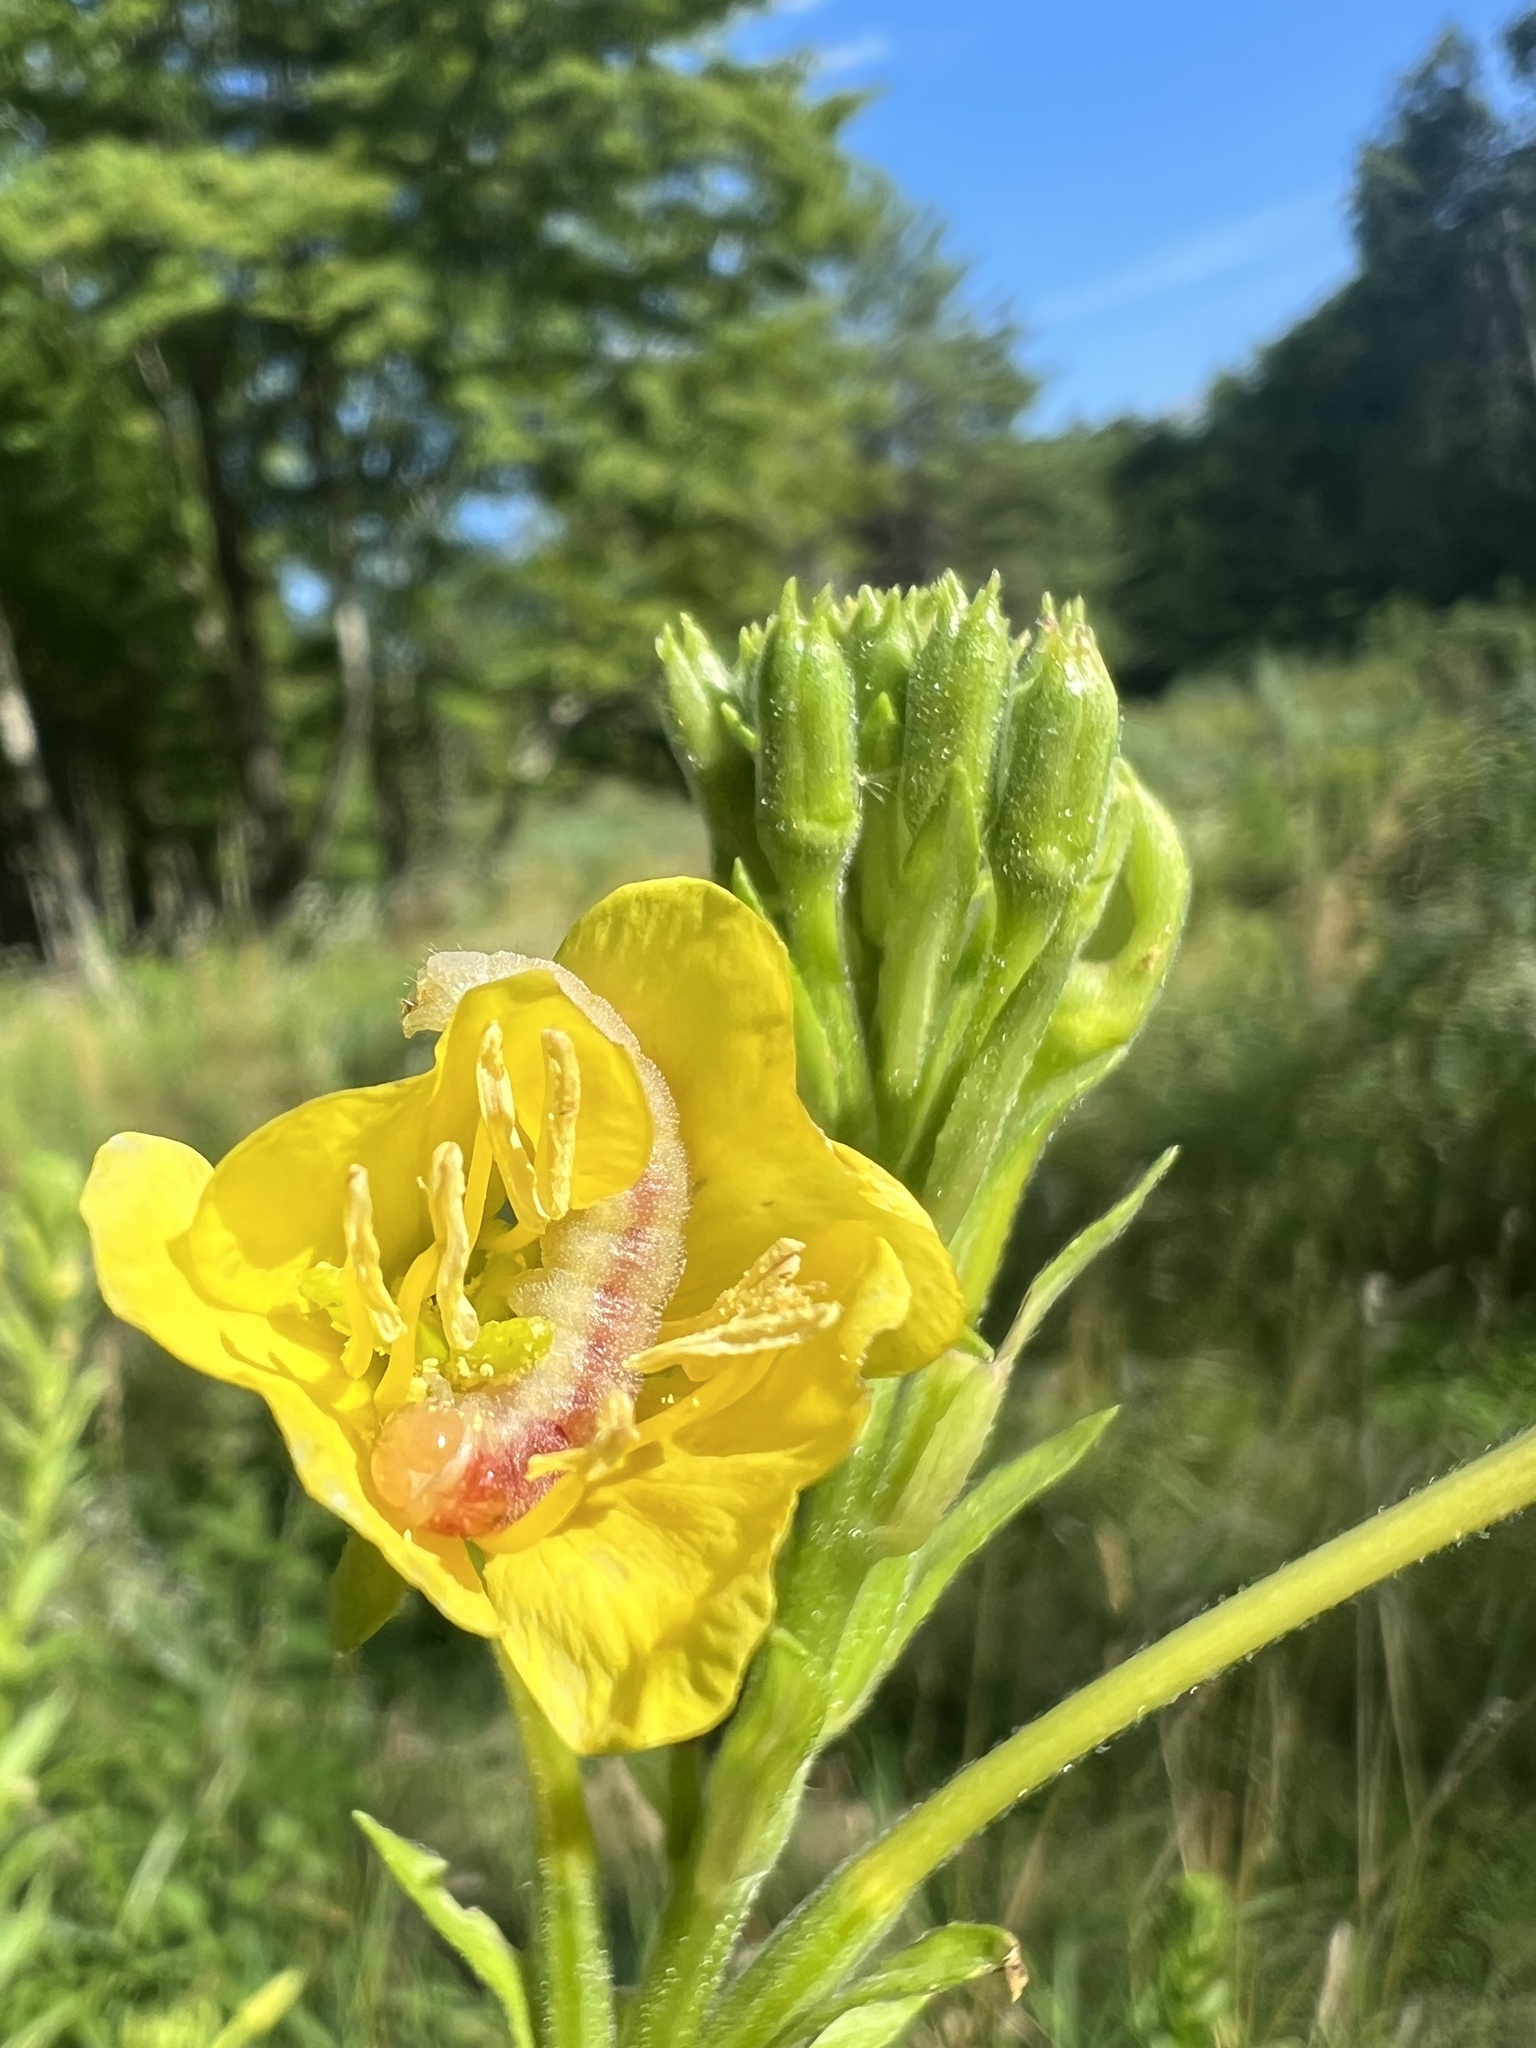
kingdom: Animalia
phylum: Arthropoda
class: Insecta
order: Lepidoptera
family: Noctuidae
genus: Schinia
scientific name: Schinia florida
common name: Primrose moth
